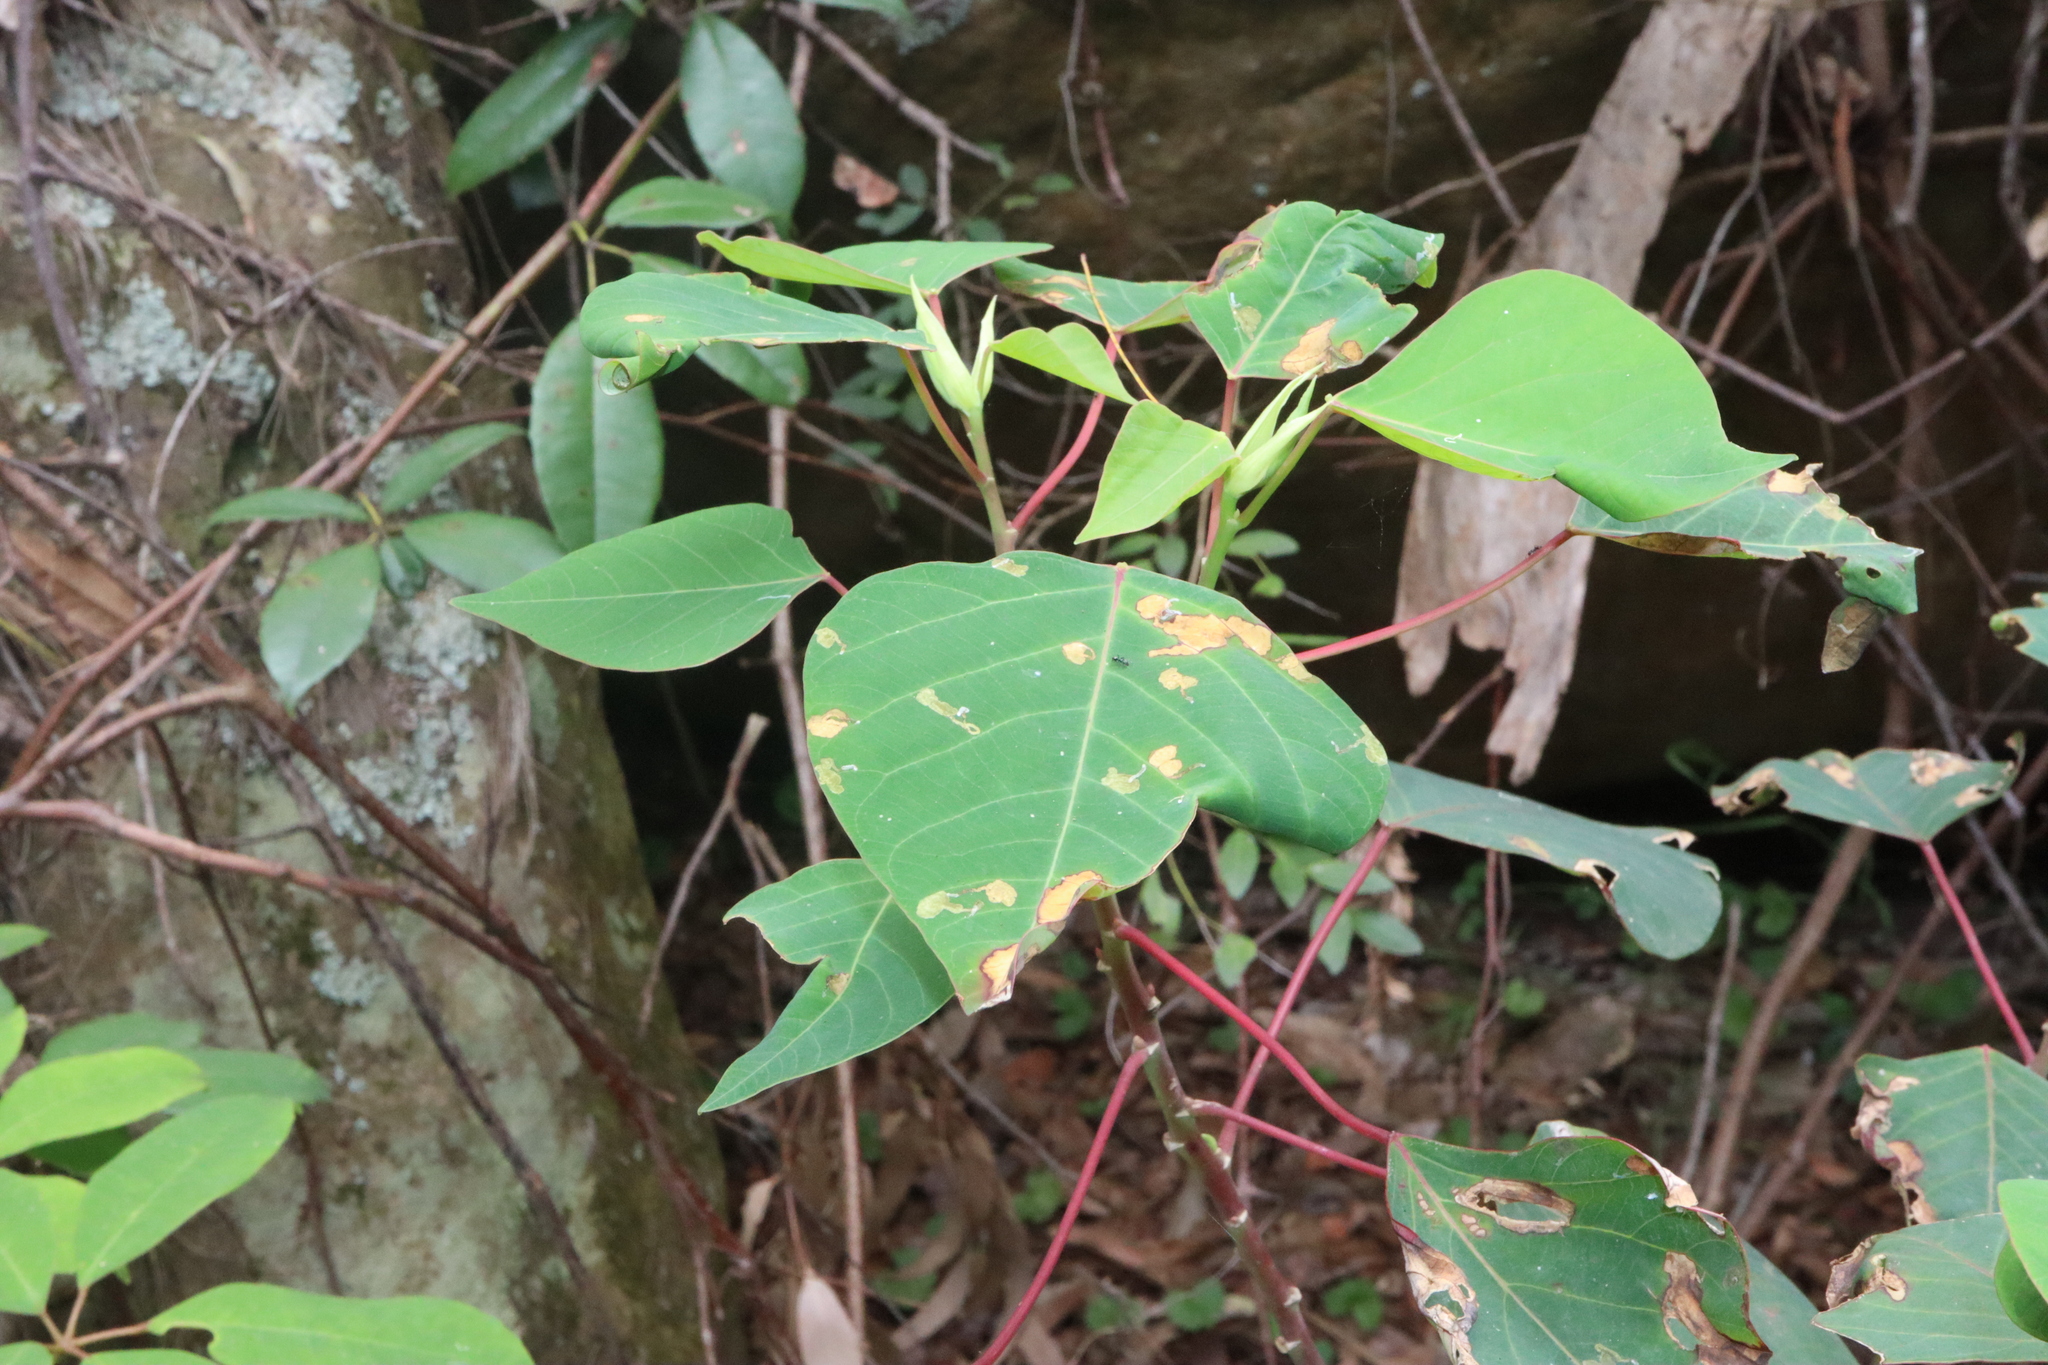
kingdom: Plantae
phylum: Tracheophyta
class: Magnoliopsida
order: Malpighiales
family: Euphorbiaceae
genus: Homalanthus
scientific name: Homalanthus populifolius
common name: Queensland poplar
